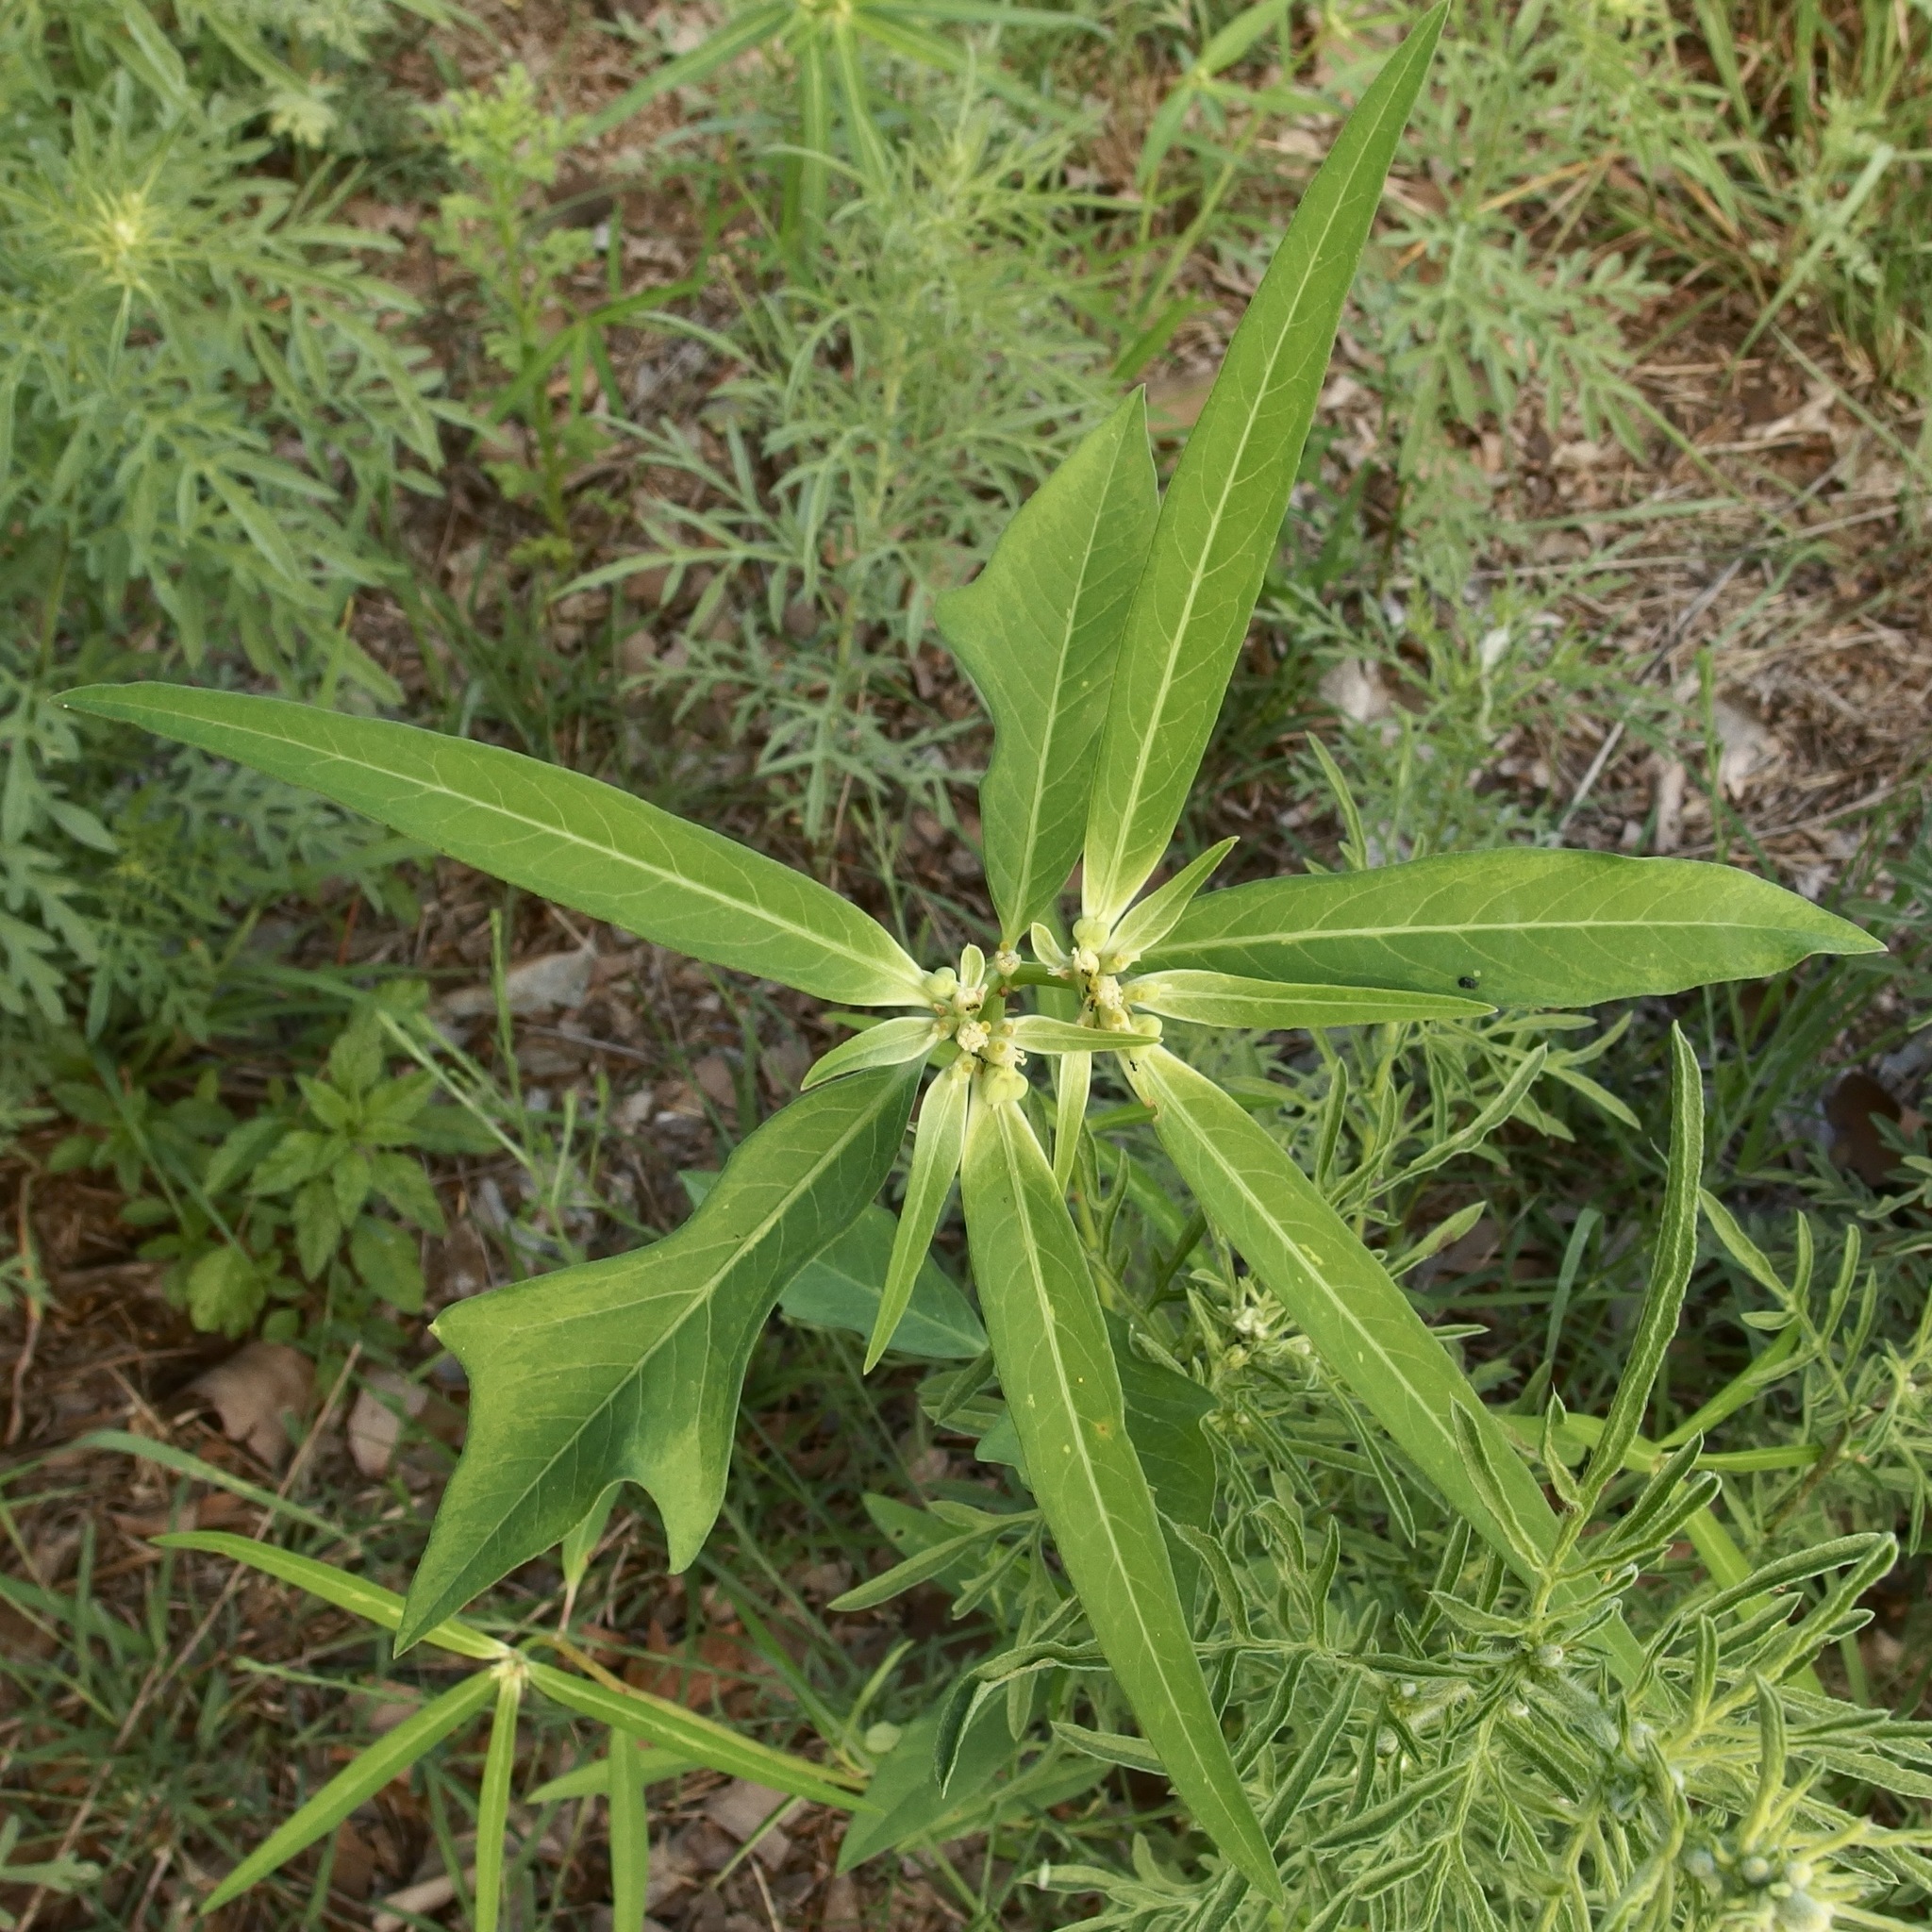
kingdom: Plantae
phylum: Tracheophyta
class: Magnoliopsida
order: Malpighiales
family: Euphorbiaceae
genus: Euphorbia
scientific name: Euphorbia heterophylla
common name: Mexican fireplant
